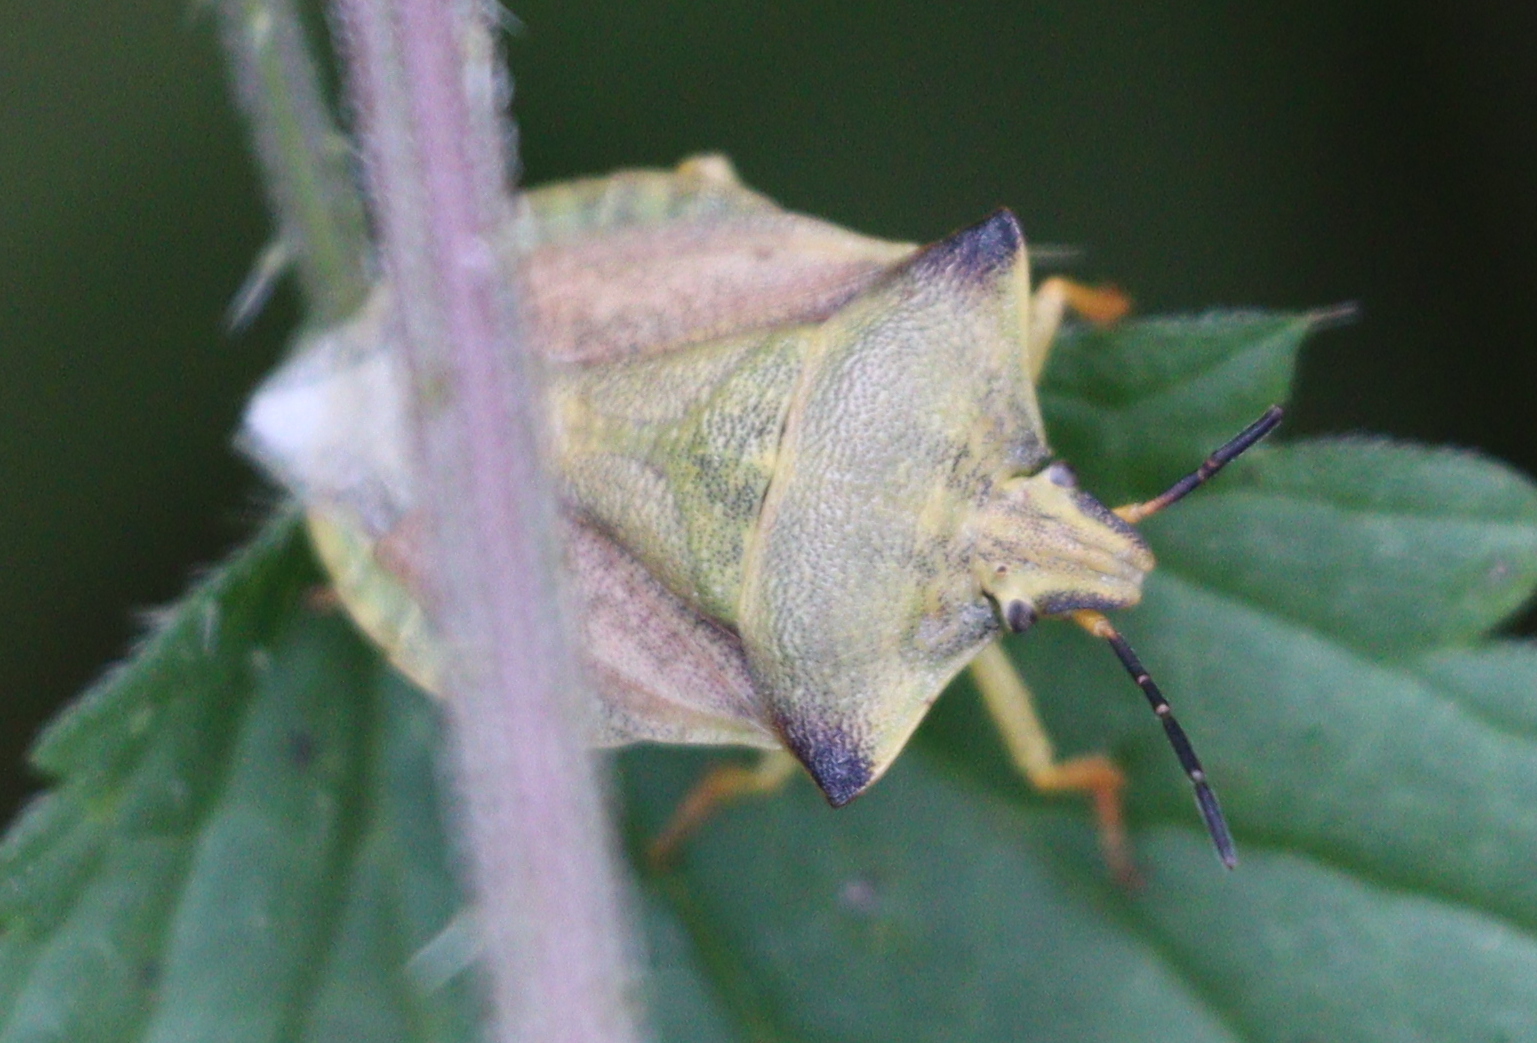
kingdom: Animalia
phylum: Arthropoda
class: Insecta
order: Hemiptera
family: Pentatomidae
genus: Carpocoris
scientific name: Carpocoris fuscispinus
